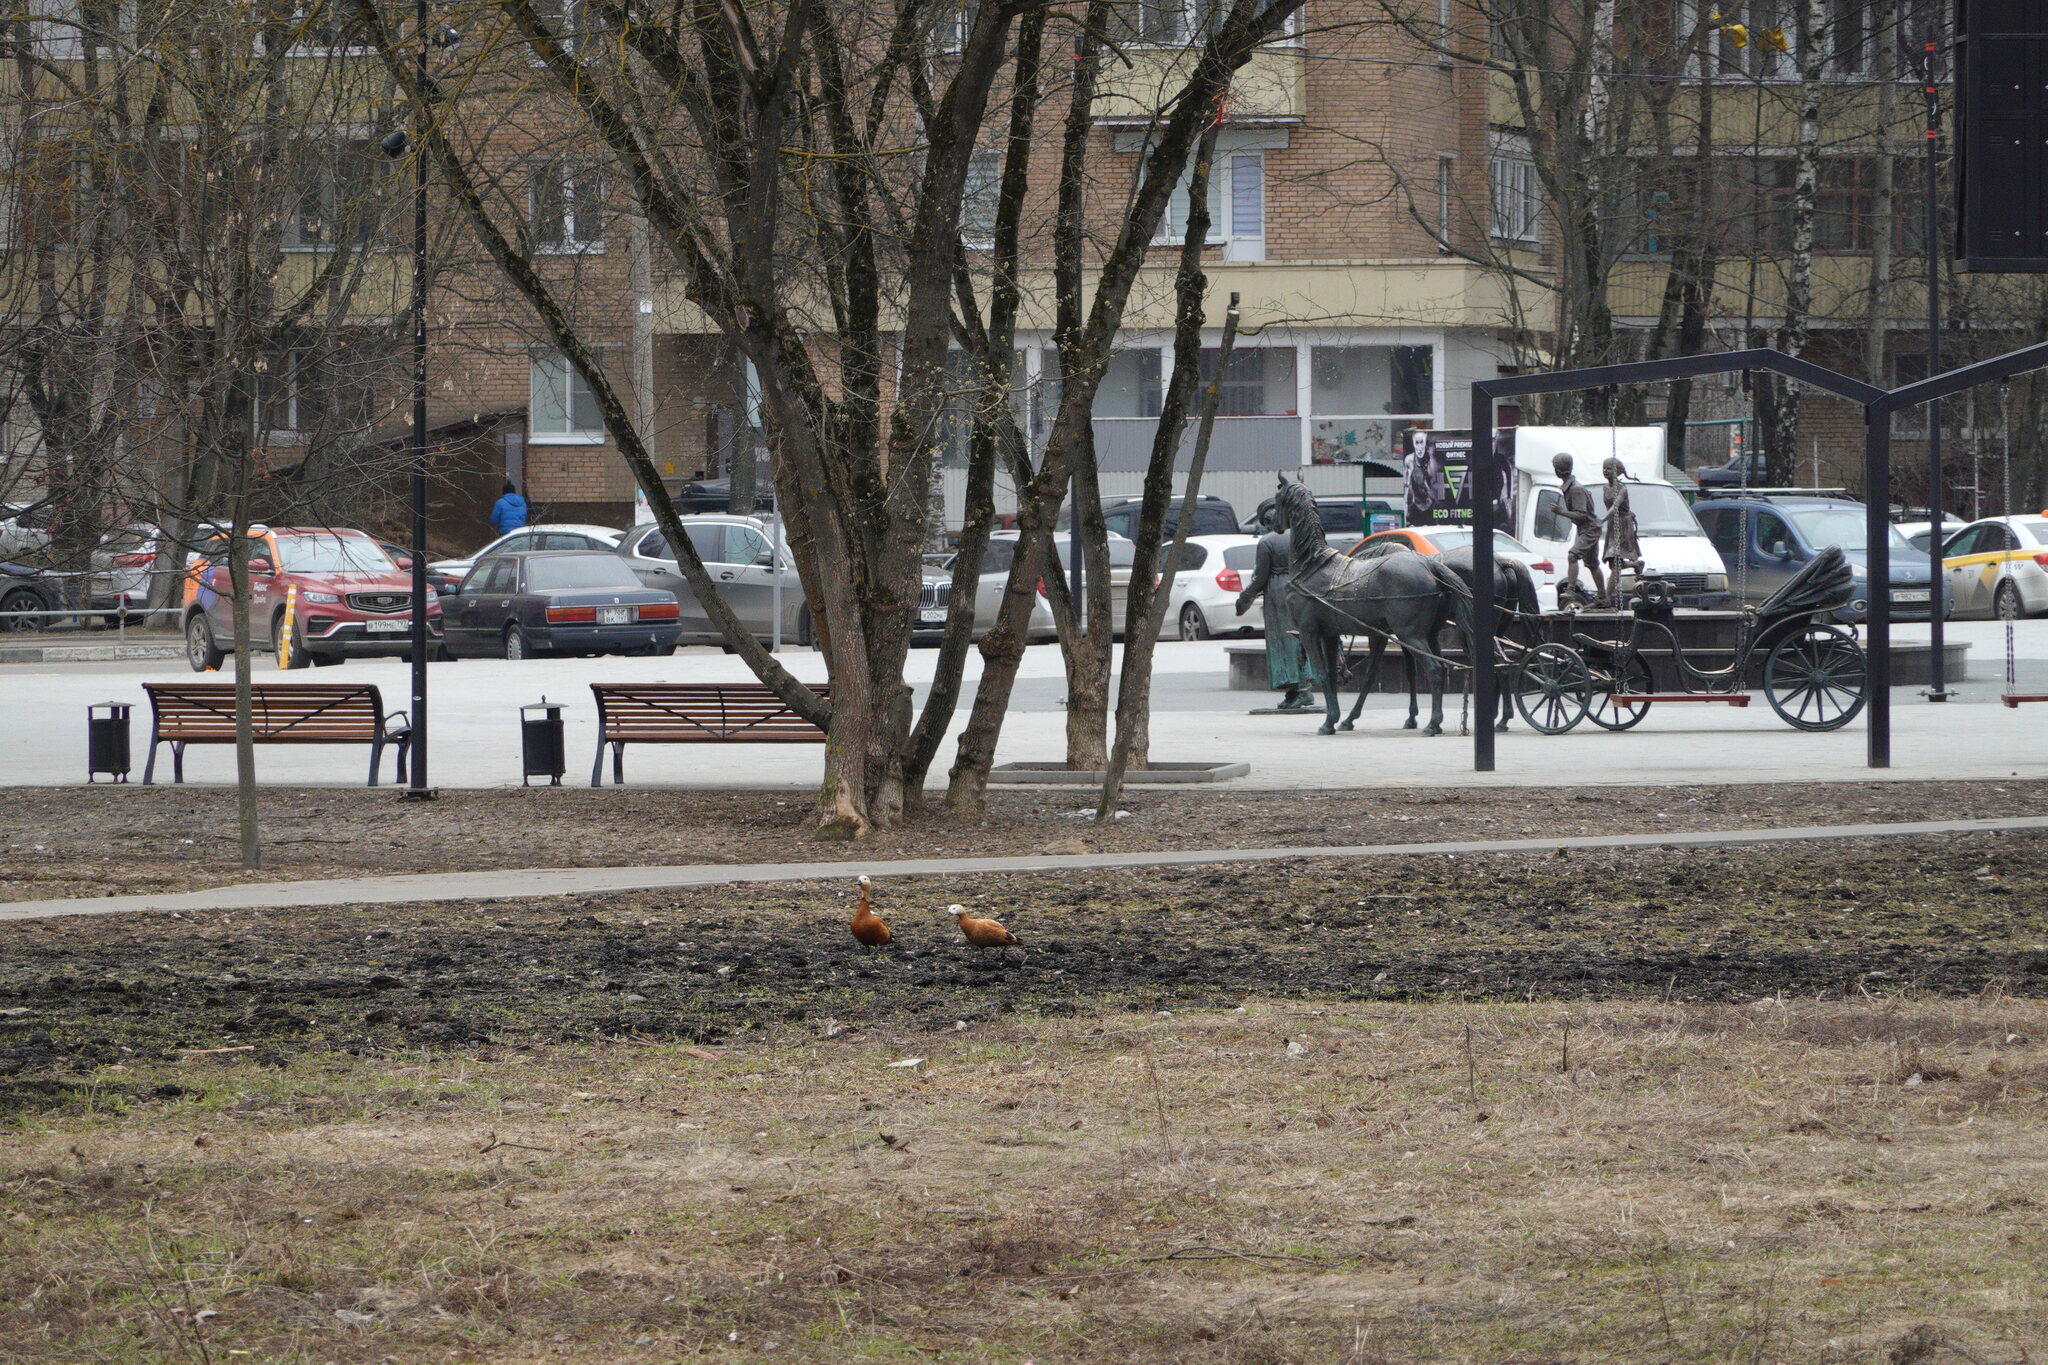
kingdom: Animalia
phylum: Chordata
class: Aves
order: Anseriformes
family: Anatidae
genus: Tadorna
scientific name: Tadorna ferruginea
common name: Ruddy shelduck
